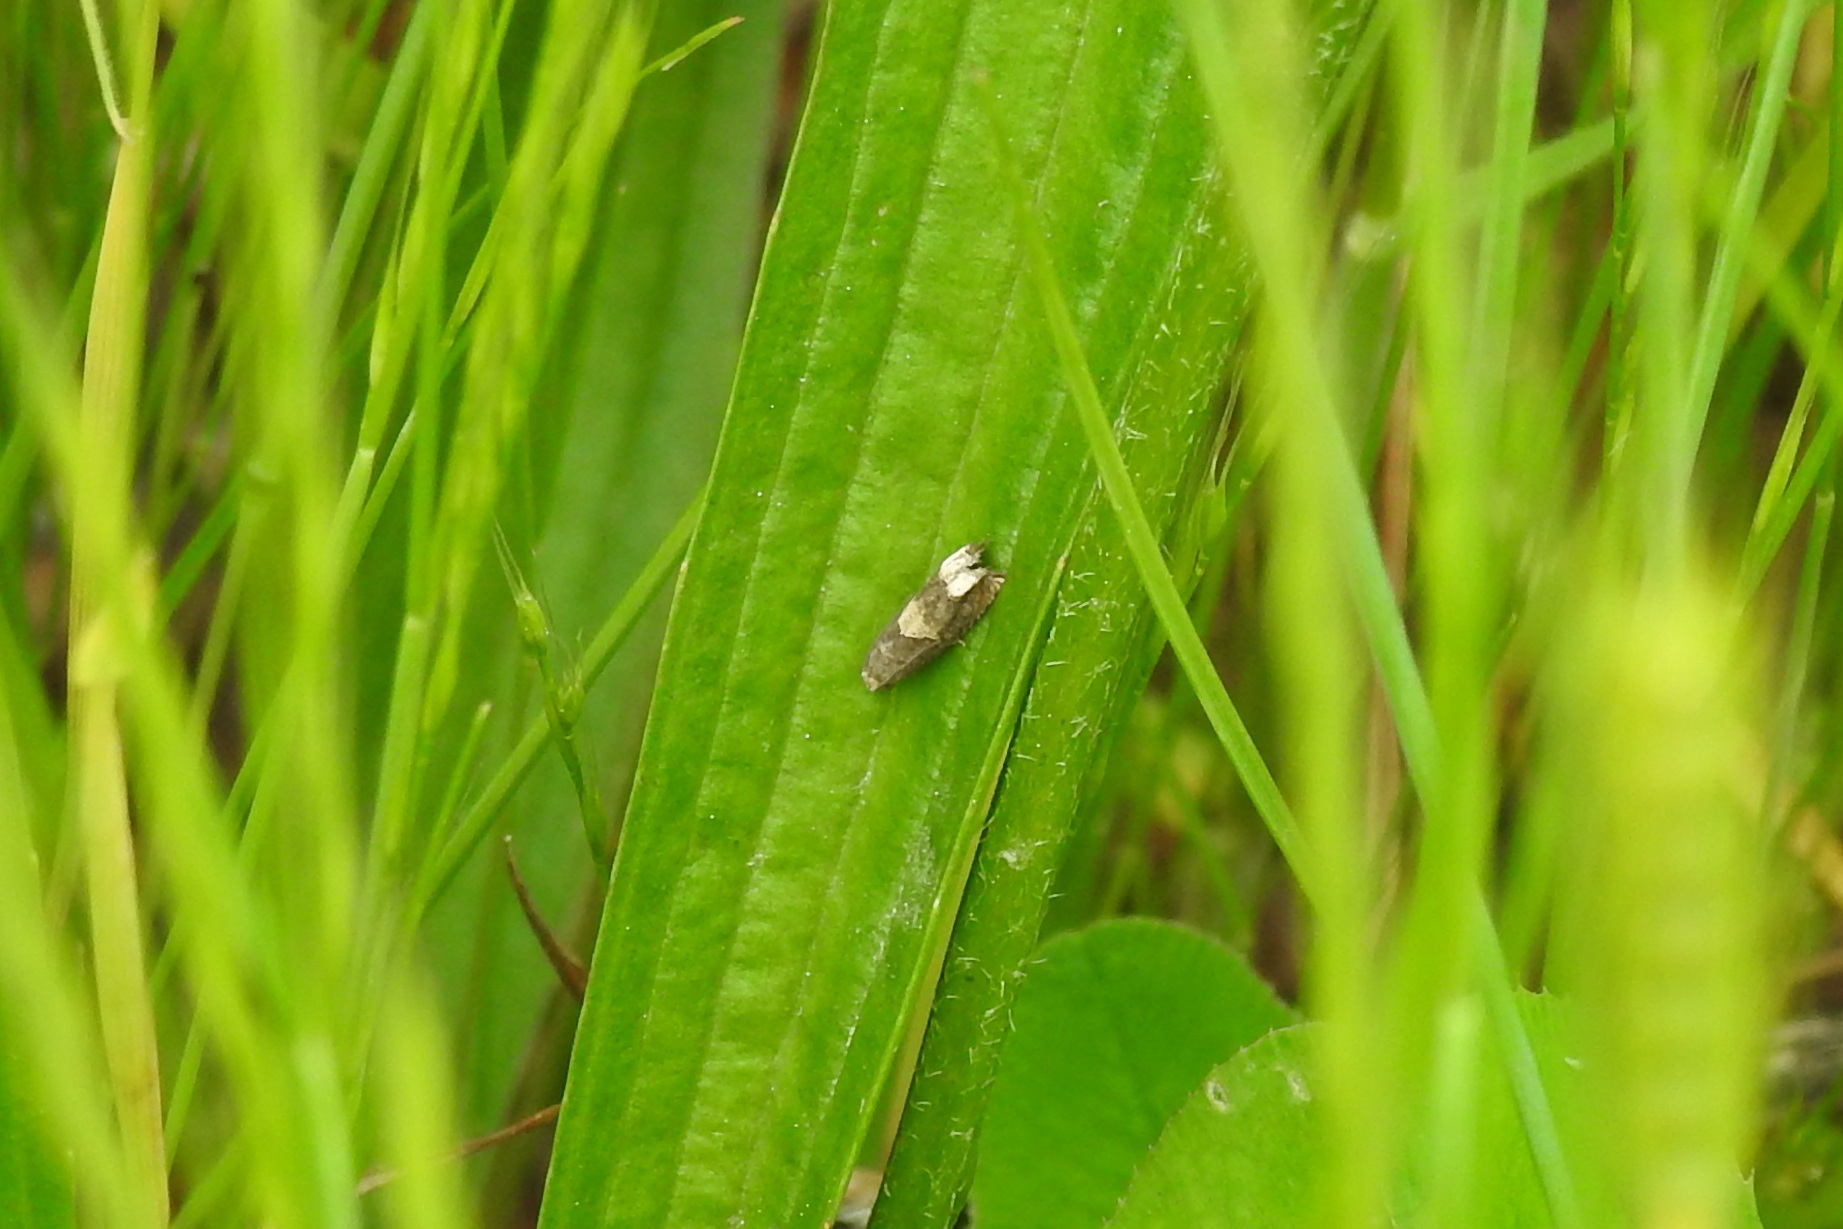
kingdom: Animalia
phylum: Arthropoda
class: Insecta
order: Lepidoptera
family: Tortricidae
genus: Epiblema
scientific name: Epiblema strenuana
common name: Ragweed borer moth
